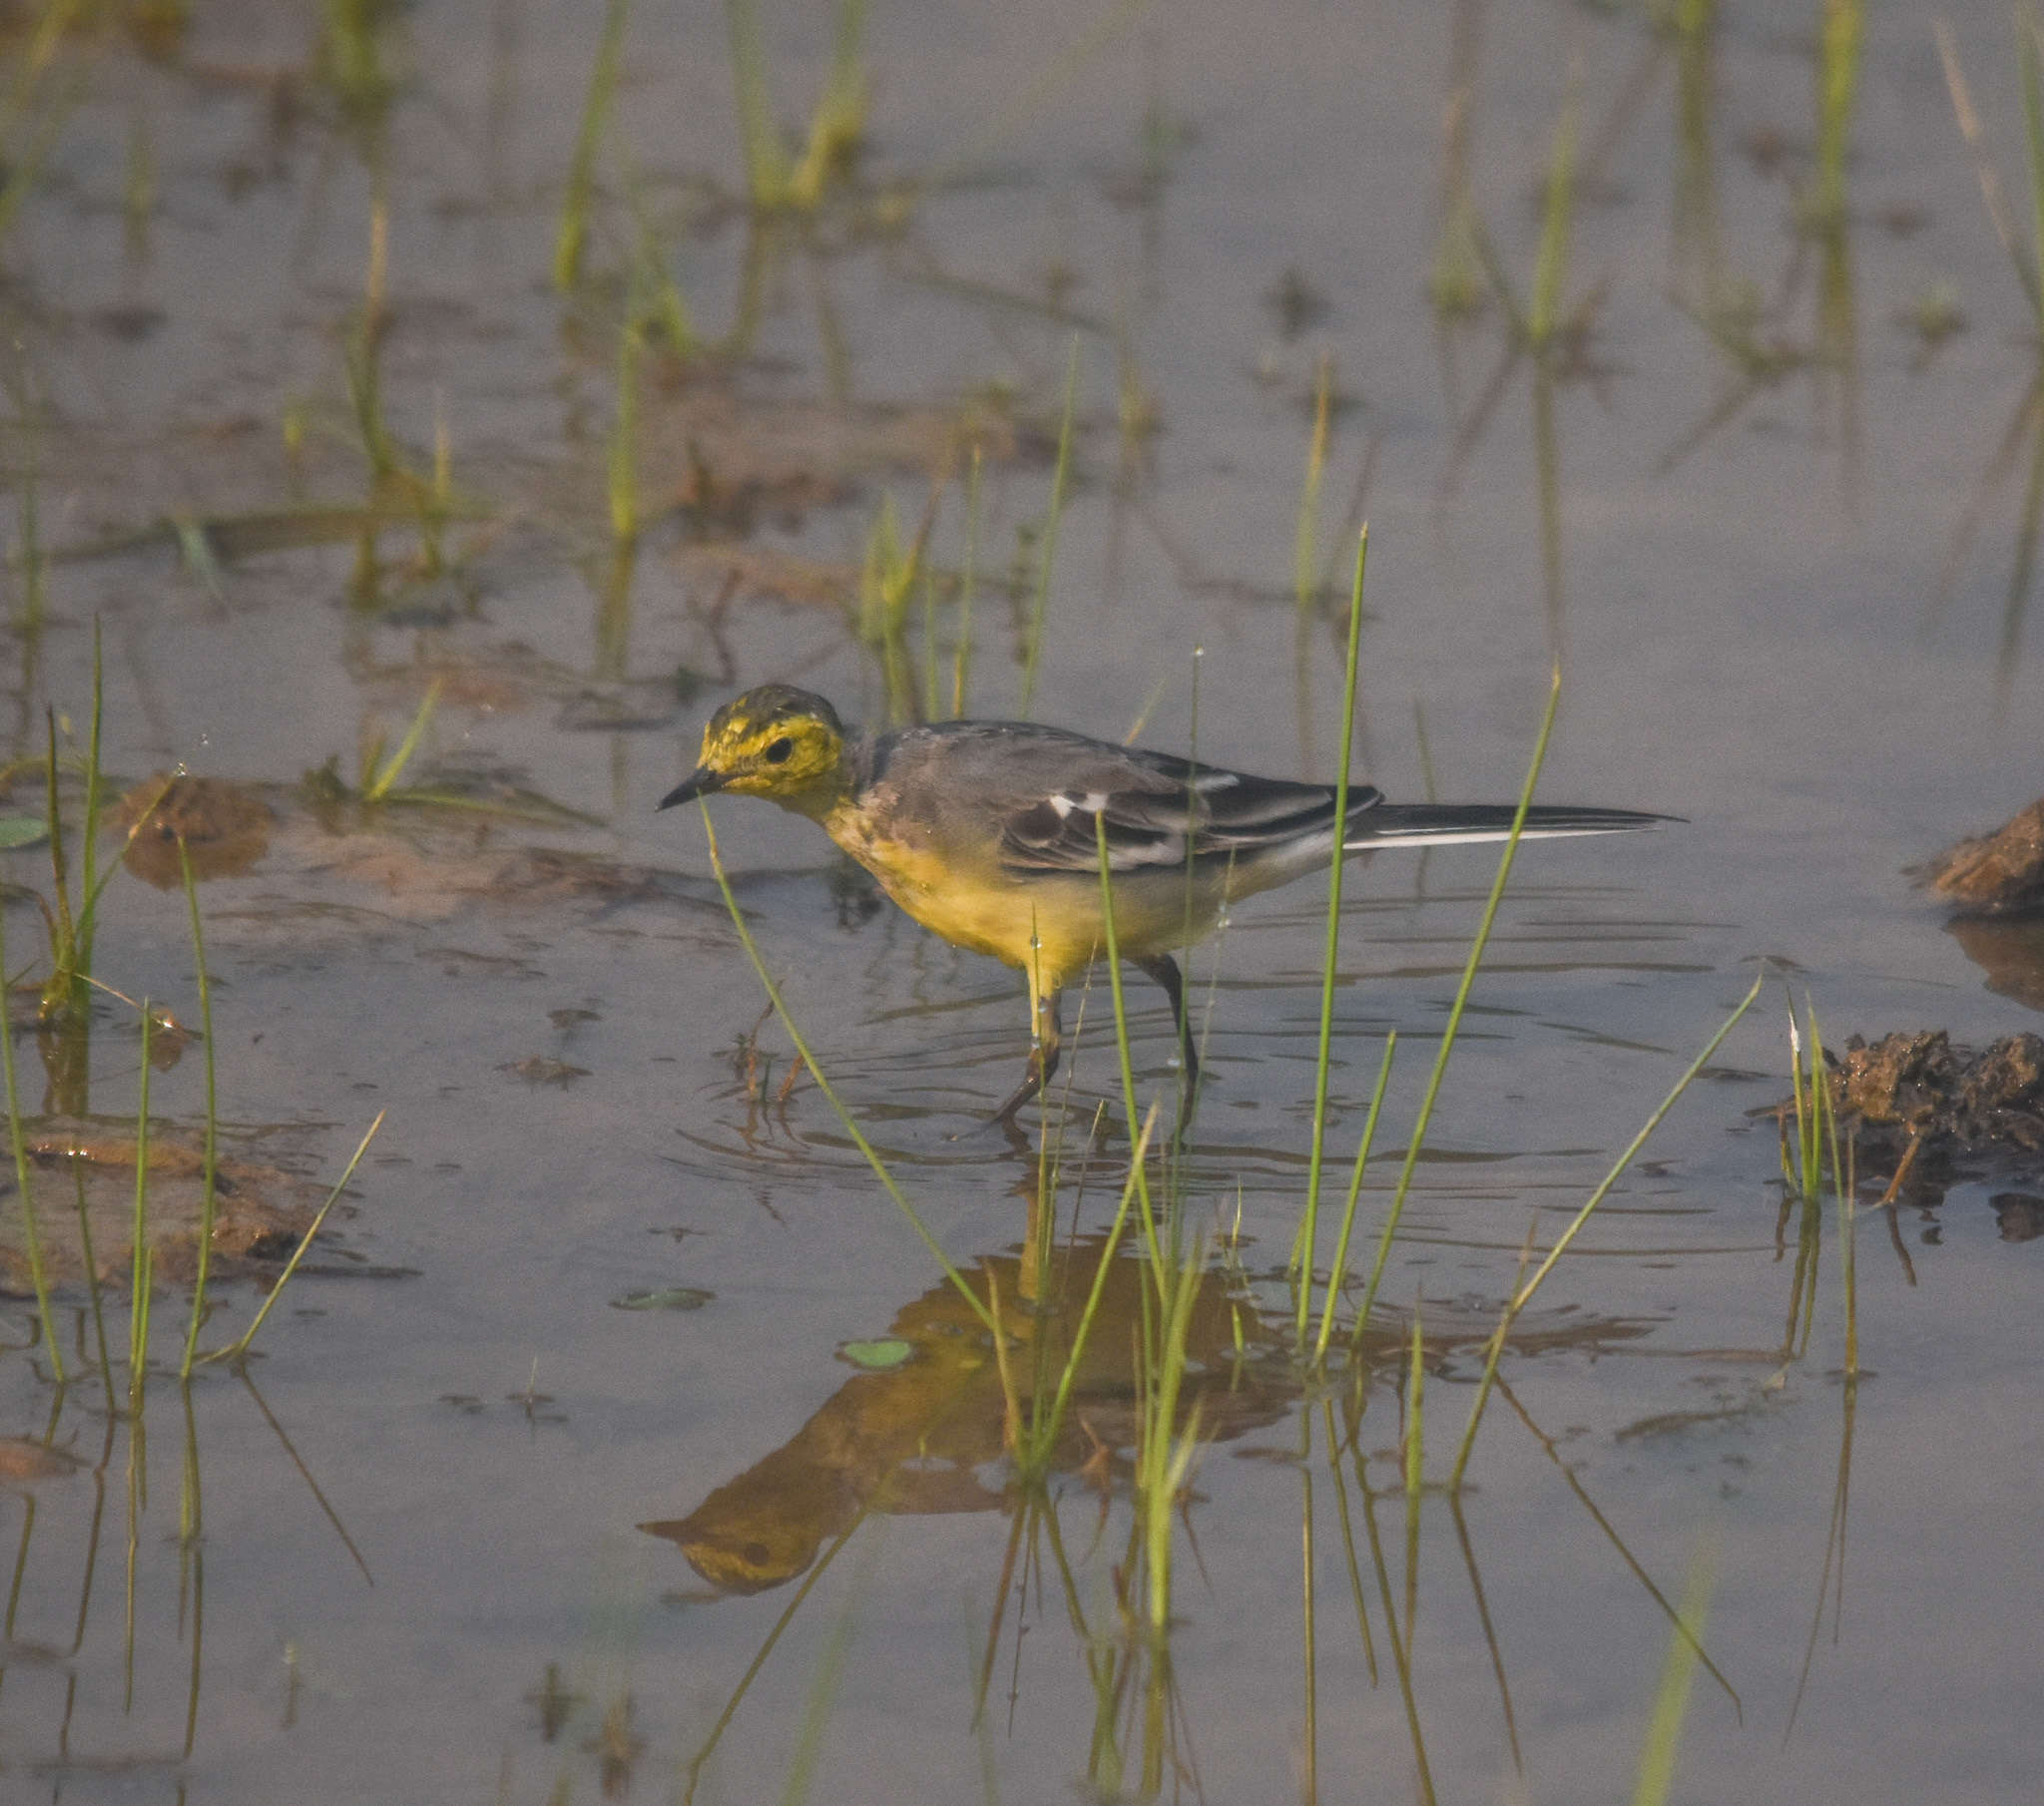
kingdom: Animalia
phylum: Chordata
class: Aves
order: Passeriformes
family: Motacillidae
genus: Motacilla
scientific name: Motacilla citreola
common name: Citrine wagtail
